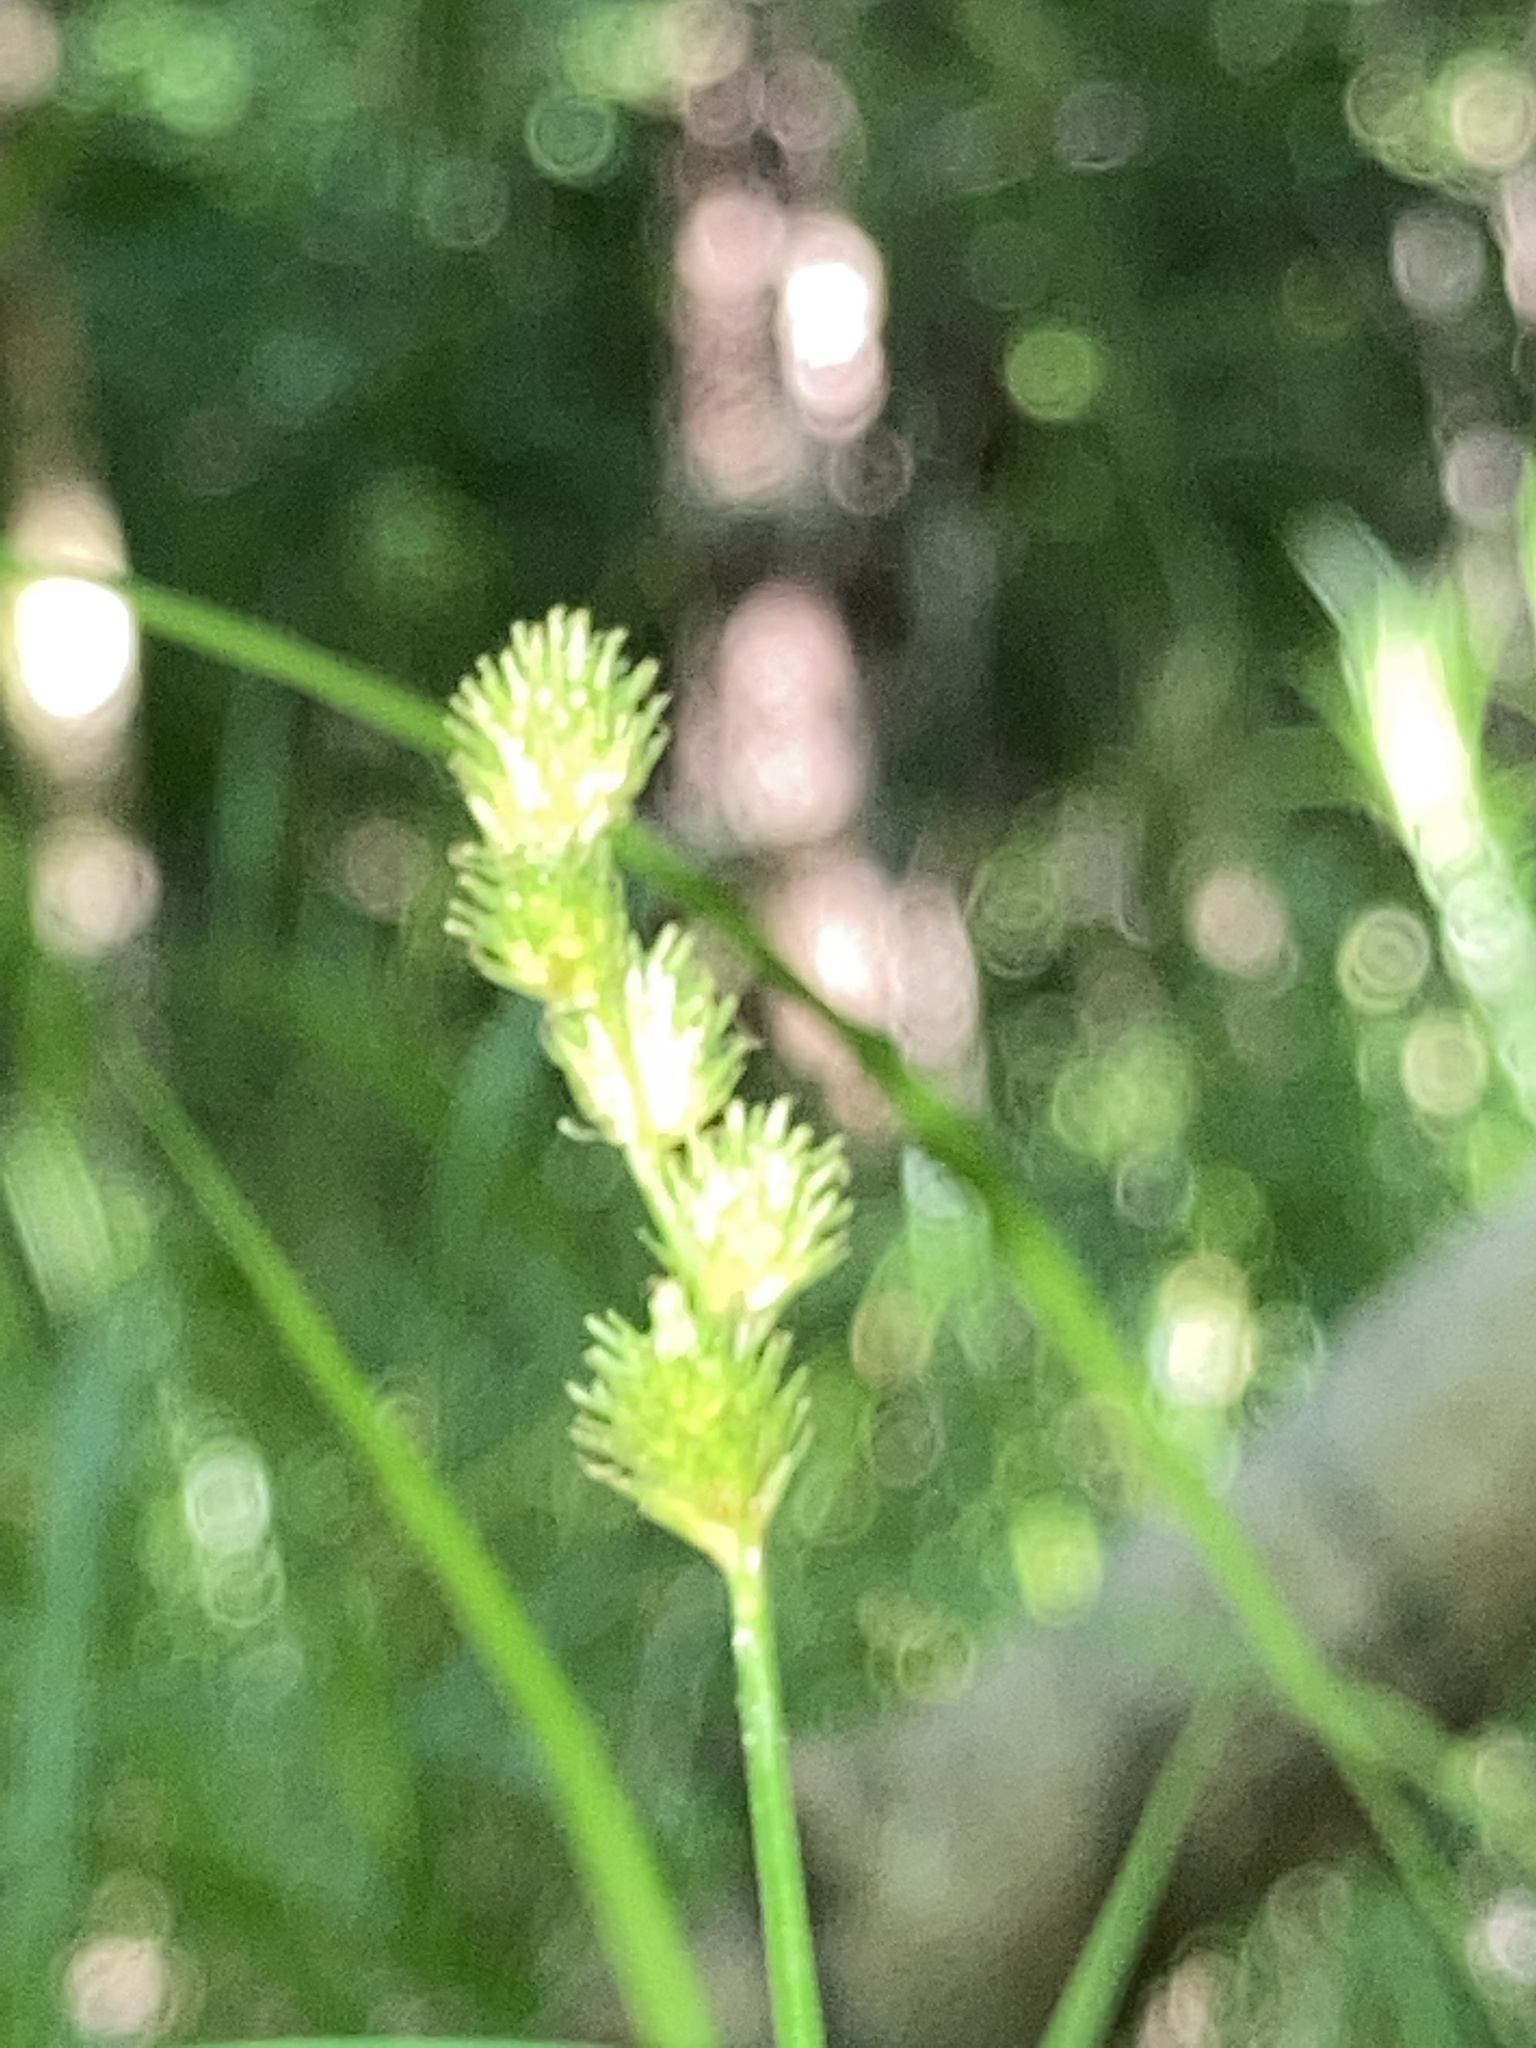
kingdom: Plantae
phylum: Tracheophyta
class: Liliopsida
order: Poales
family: Cyperaceae
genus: Carex
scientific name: Carex tribuloides
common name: Blunt broom sedge
